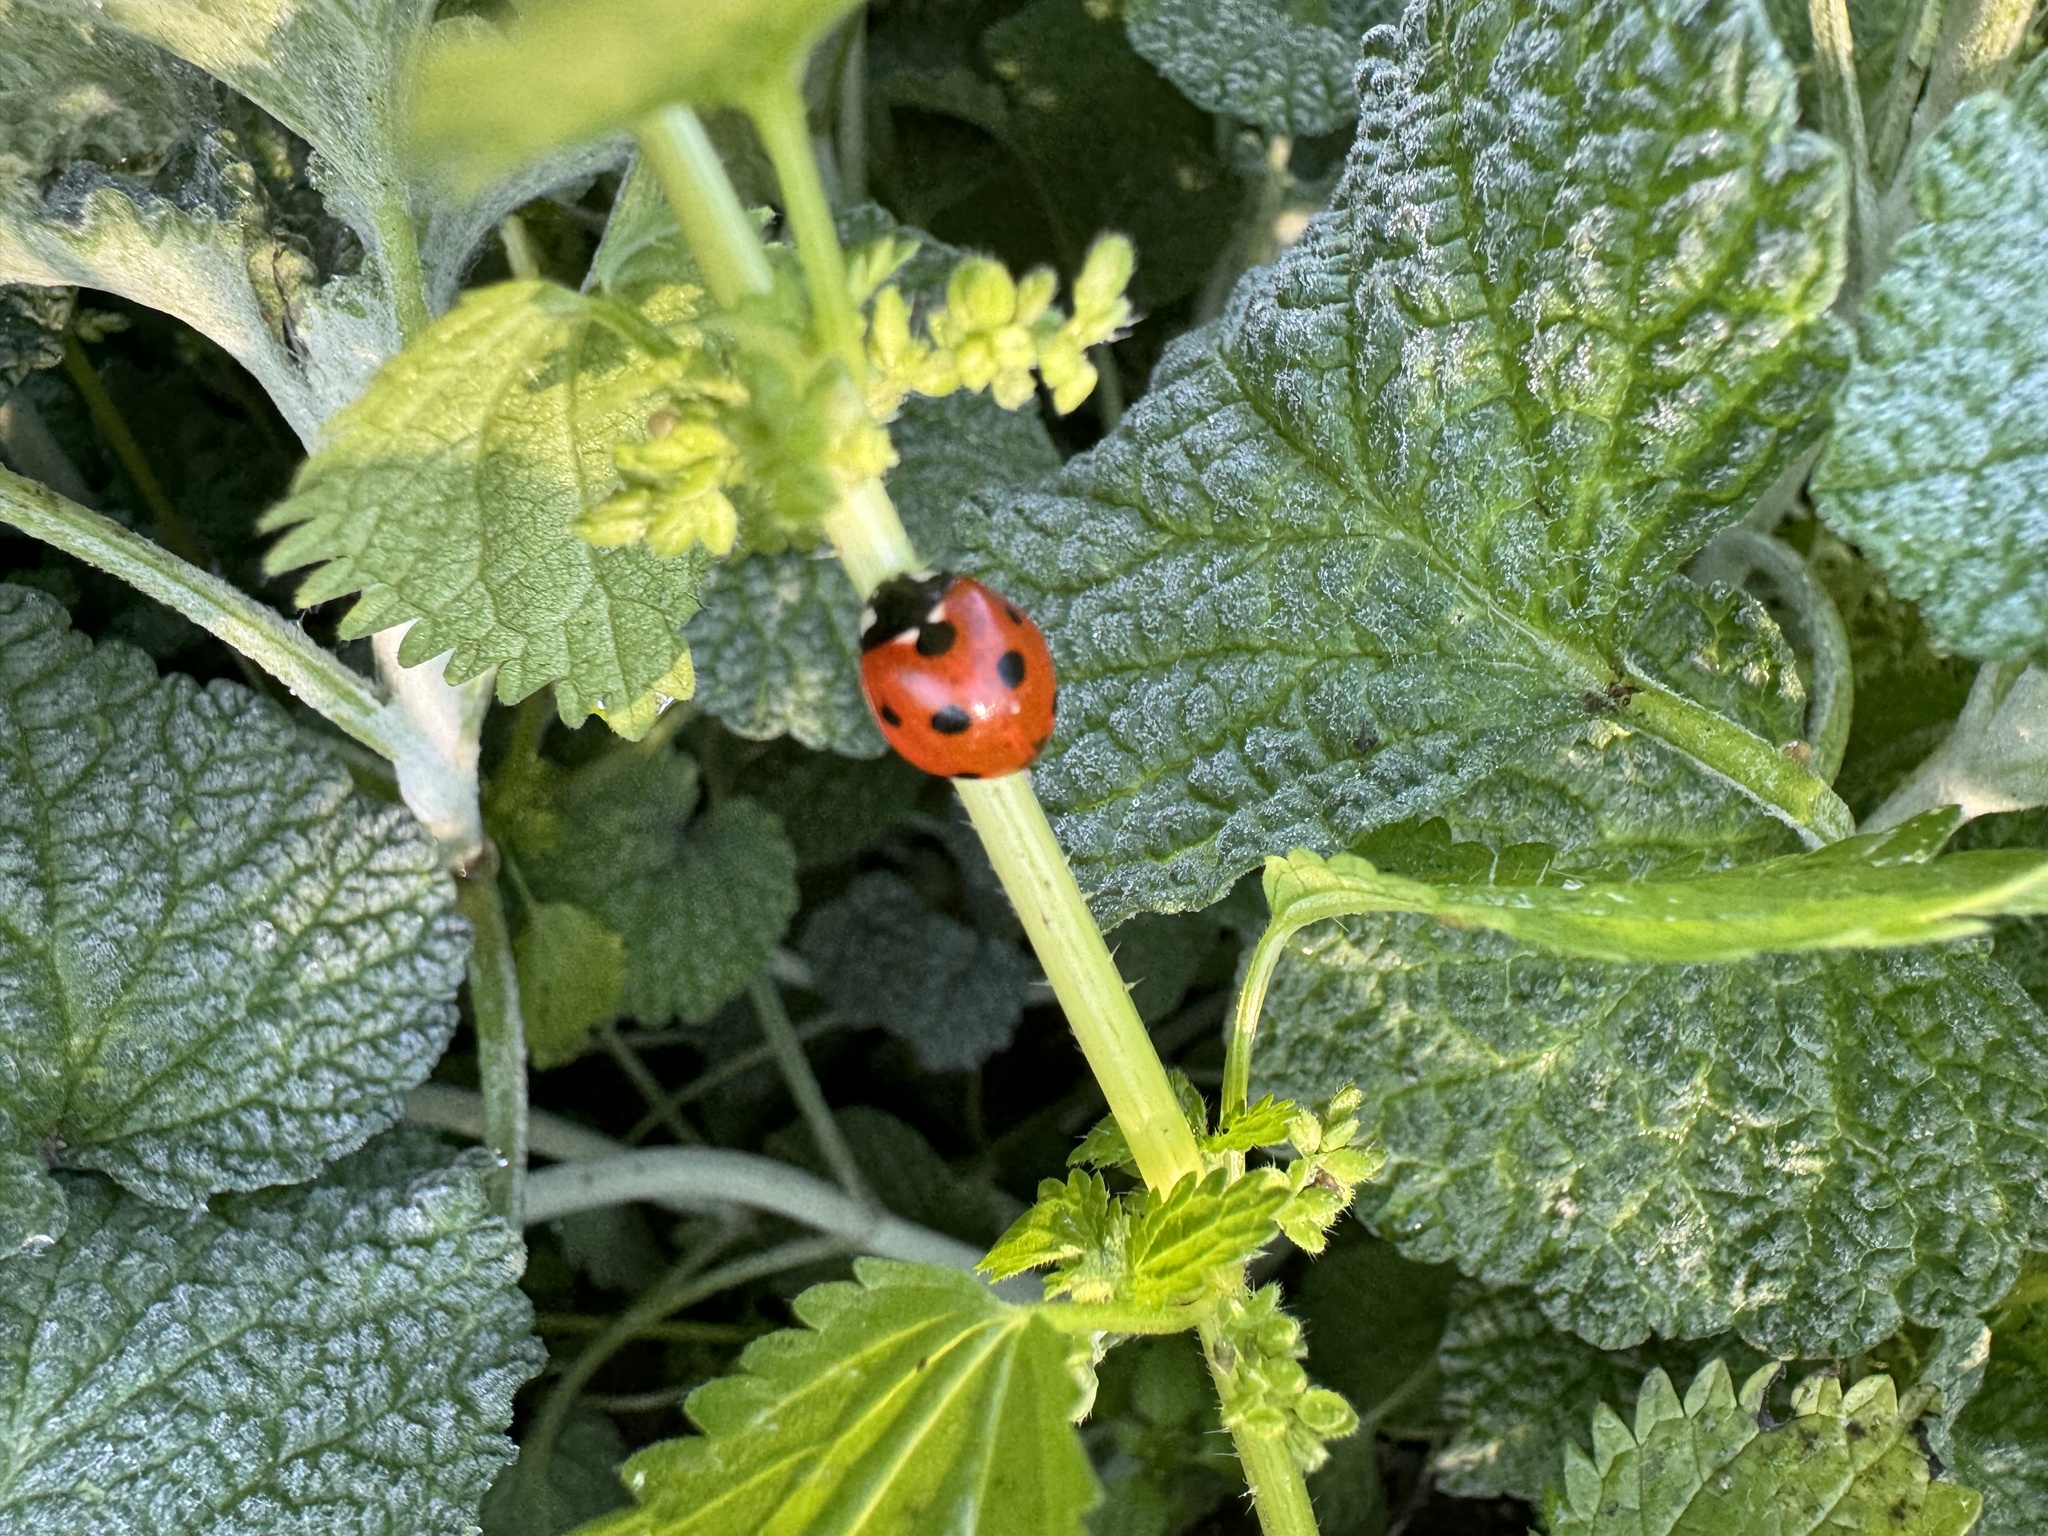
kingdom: Animalia
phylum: Arthropoda
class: Insecta
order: Coleoptera
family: Coccinellidae
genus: Coccinella
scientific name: Coccinella septempunctata
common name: Sevenspotted lady beetle
